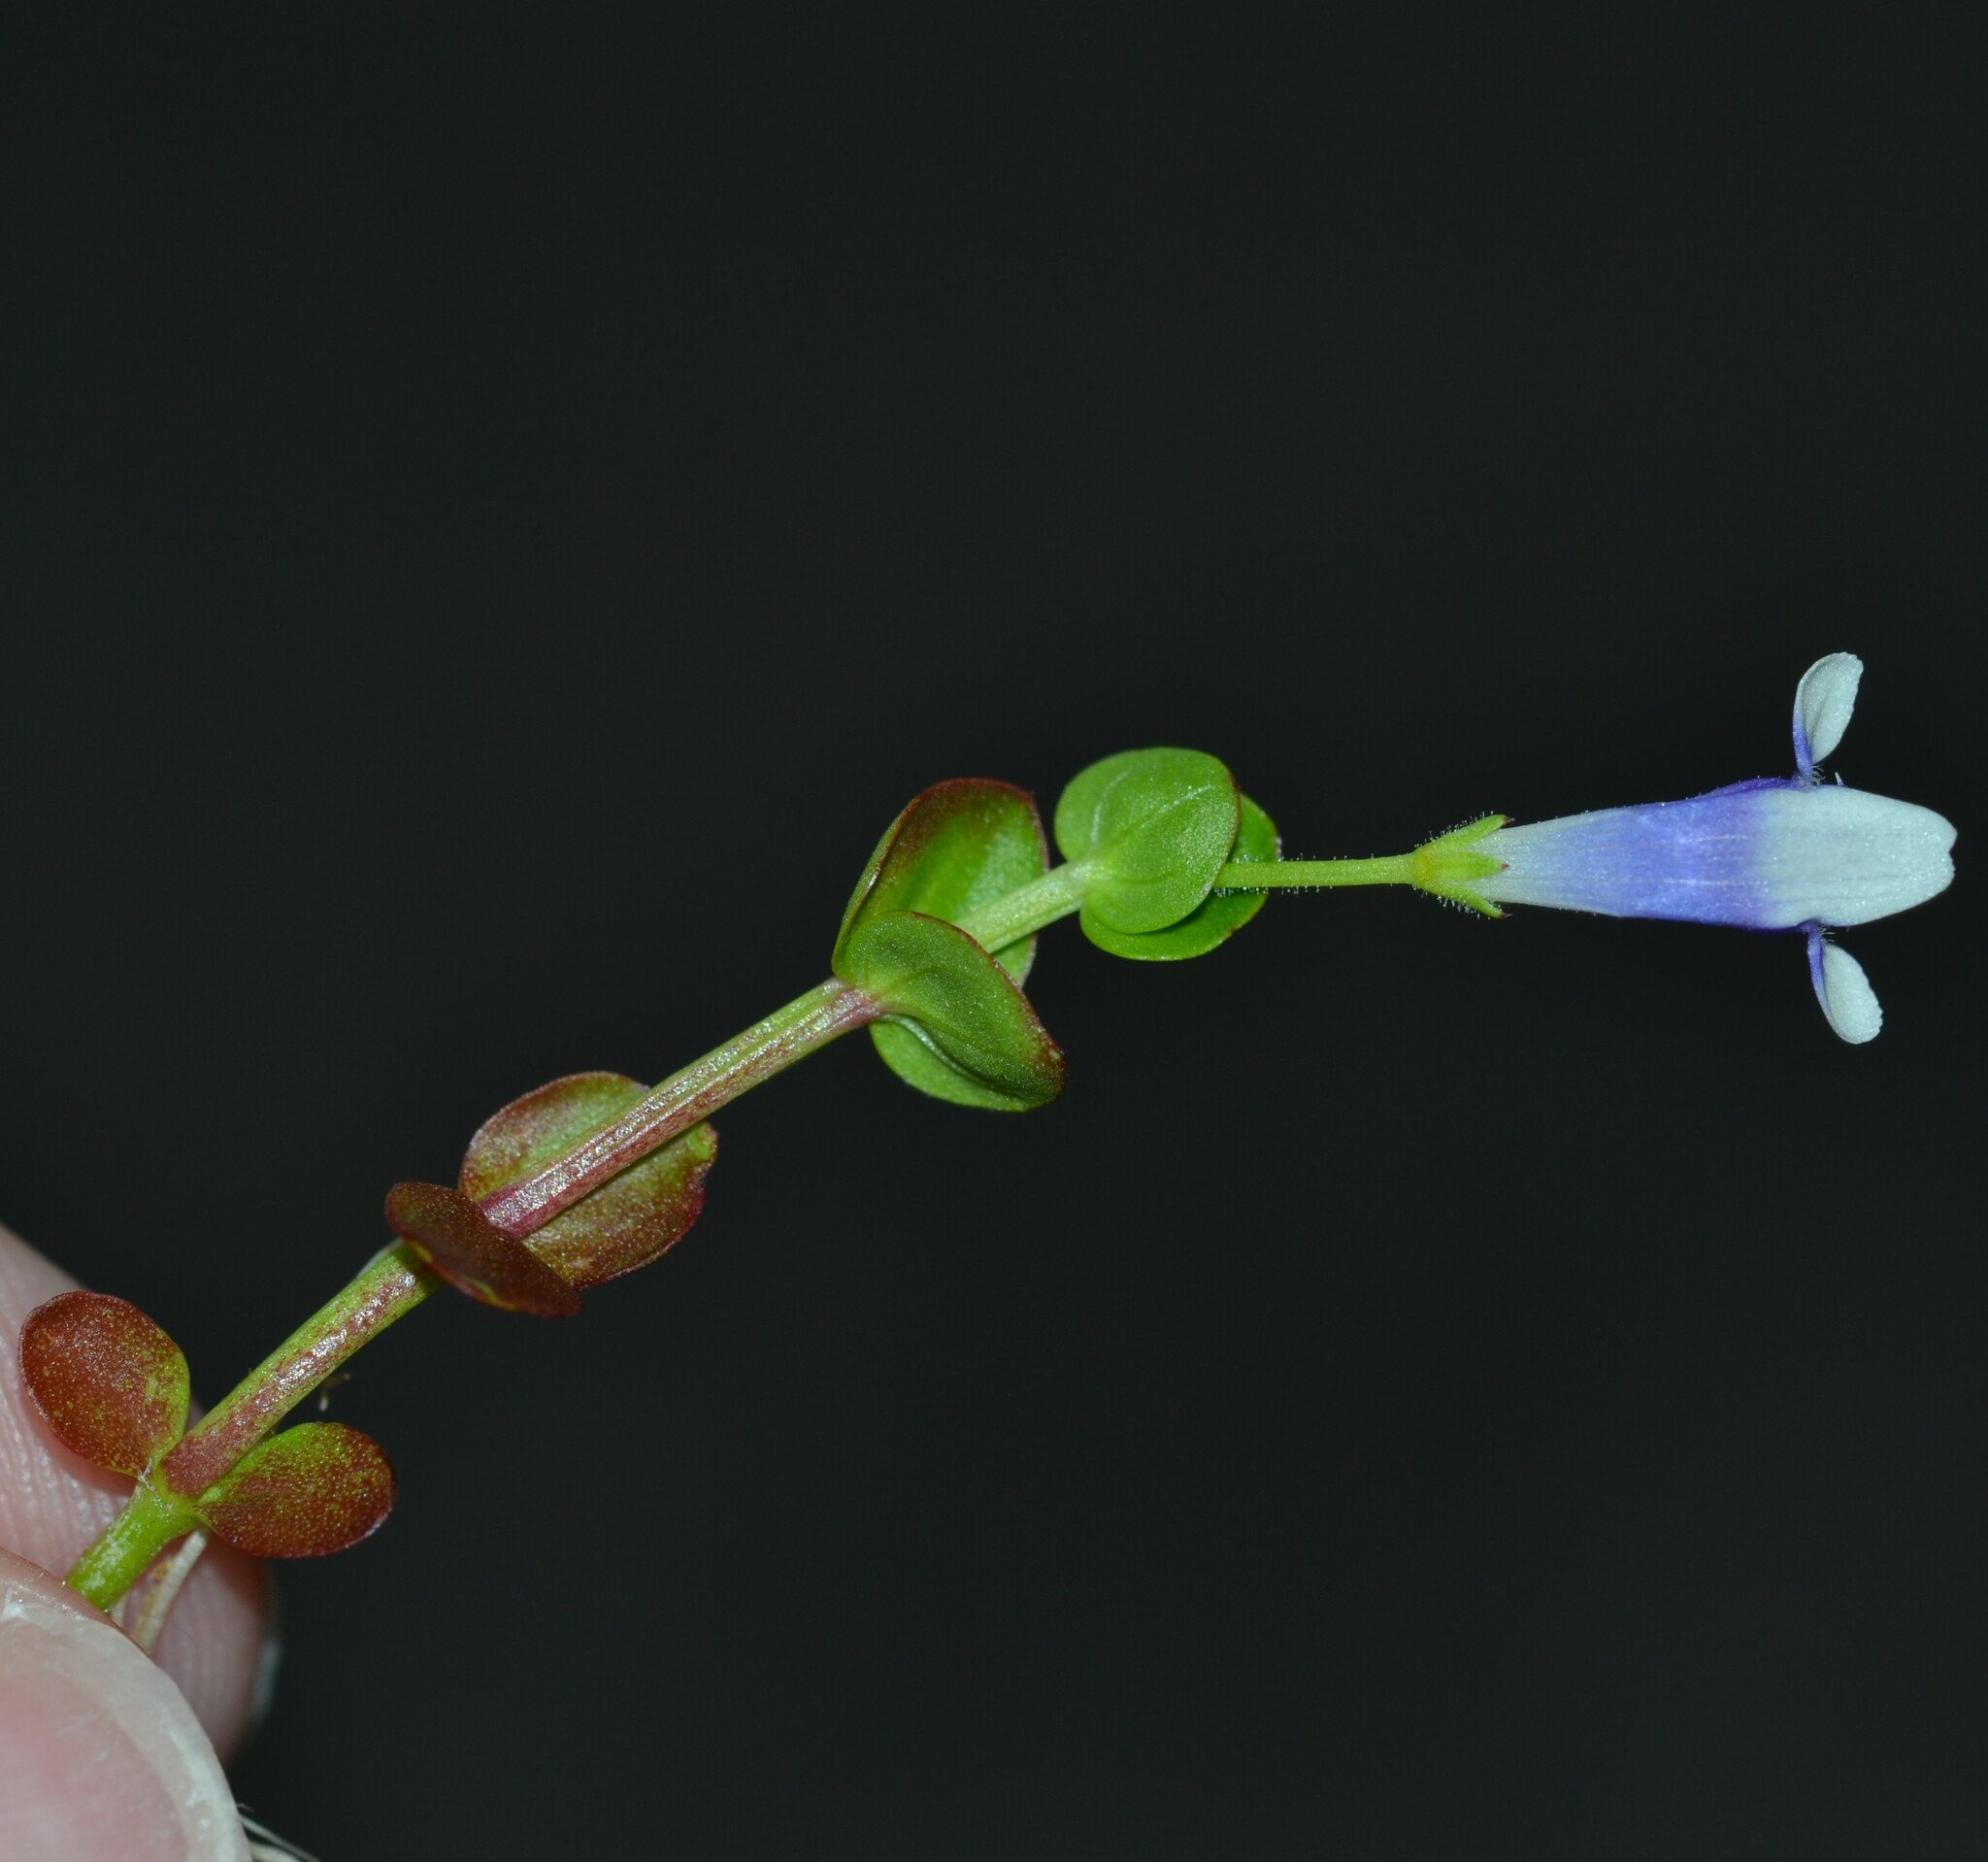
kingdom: Plantae
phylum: Tracheophyta
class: Magnoliopsida
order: Lamiales
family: Linderniaceae
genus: Lindernia
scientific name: Lindernia rotundifolia
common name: Baby’s tears
